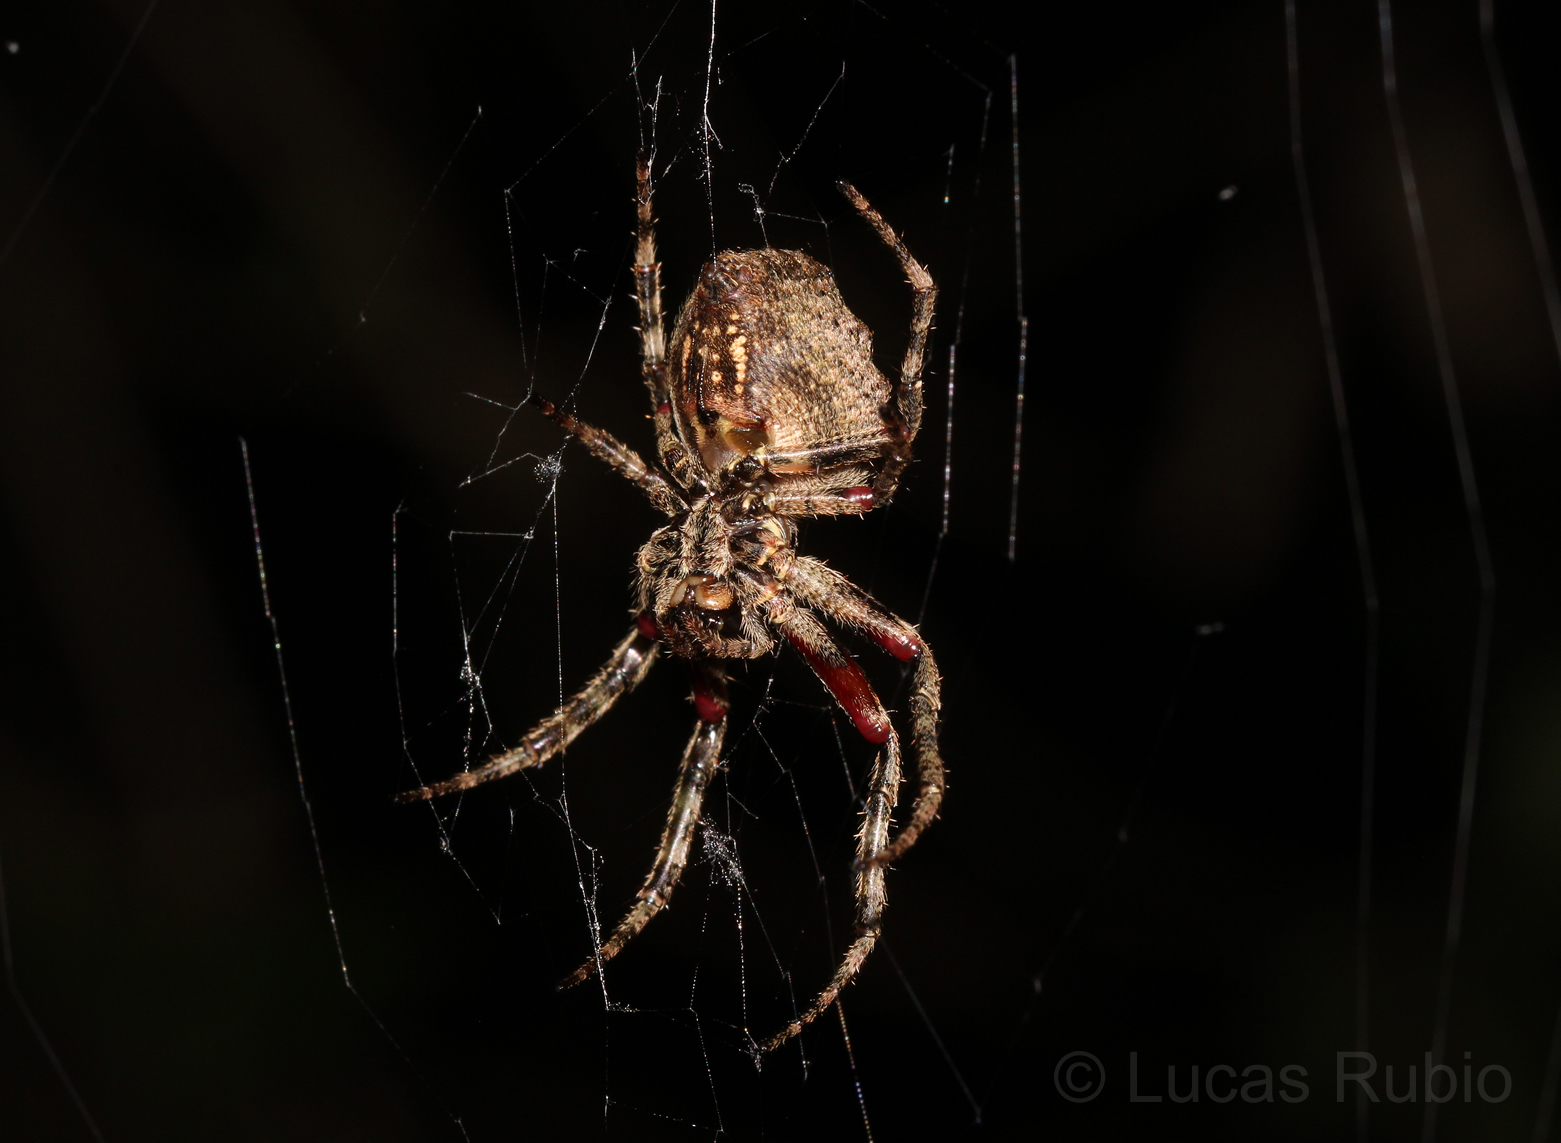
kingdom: Animalia
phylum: Arthropoda
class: Arachnida
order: Araneae
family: Araneidae
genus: Parawixia
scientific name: Parawixia audax
